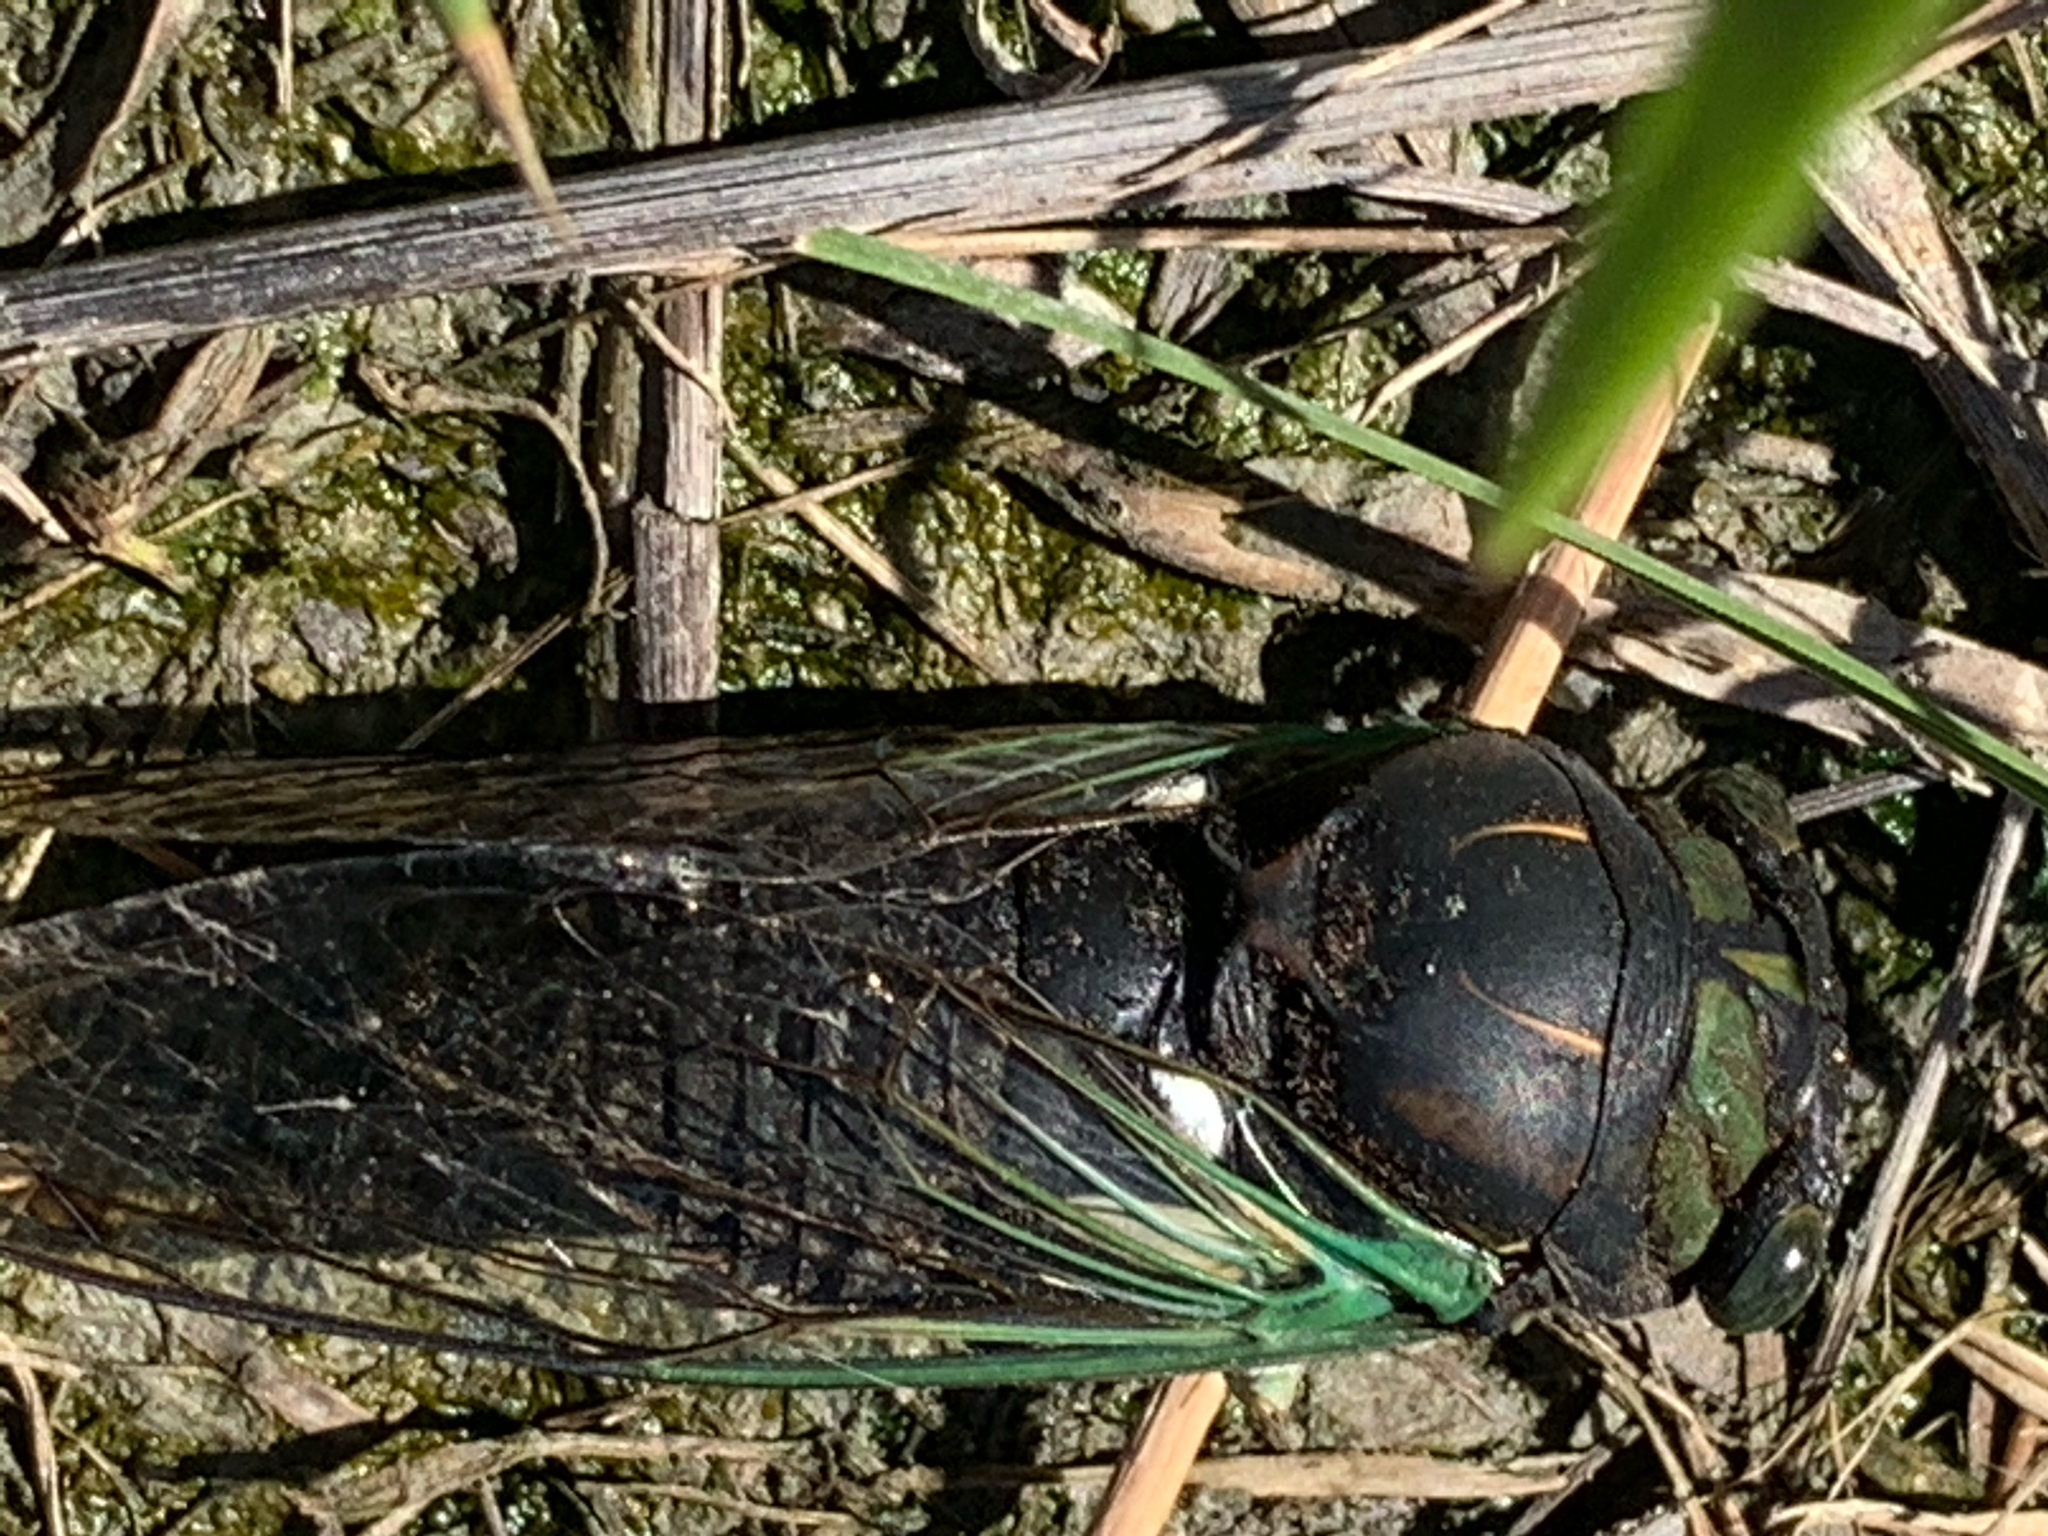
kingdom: Animalia
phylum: Arthropoda
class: Insecta
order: Hemiptera
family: Cicadidae
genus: Neotibicen
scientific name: Neotibicen tibicen
